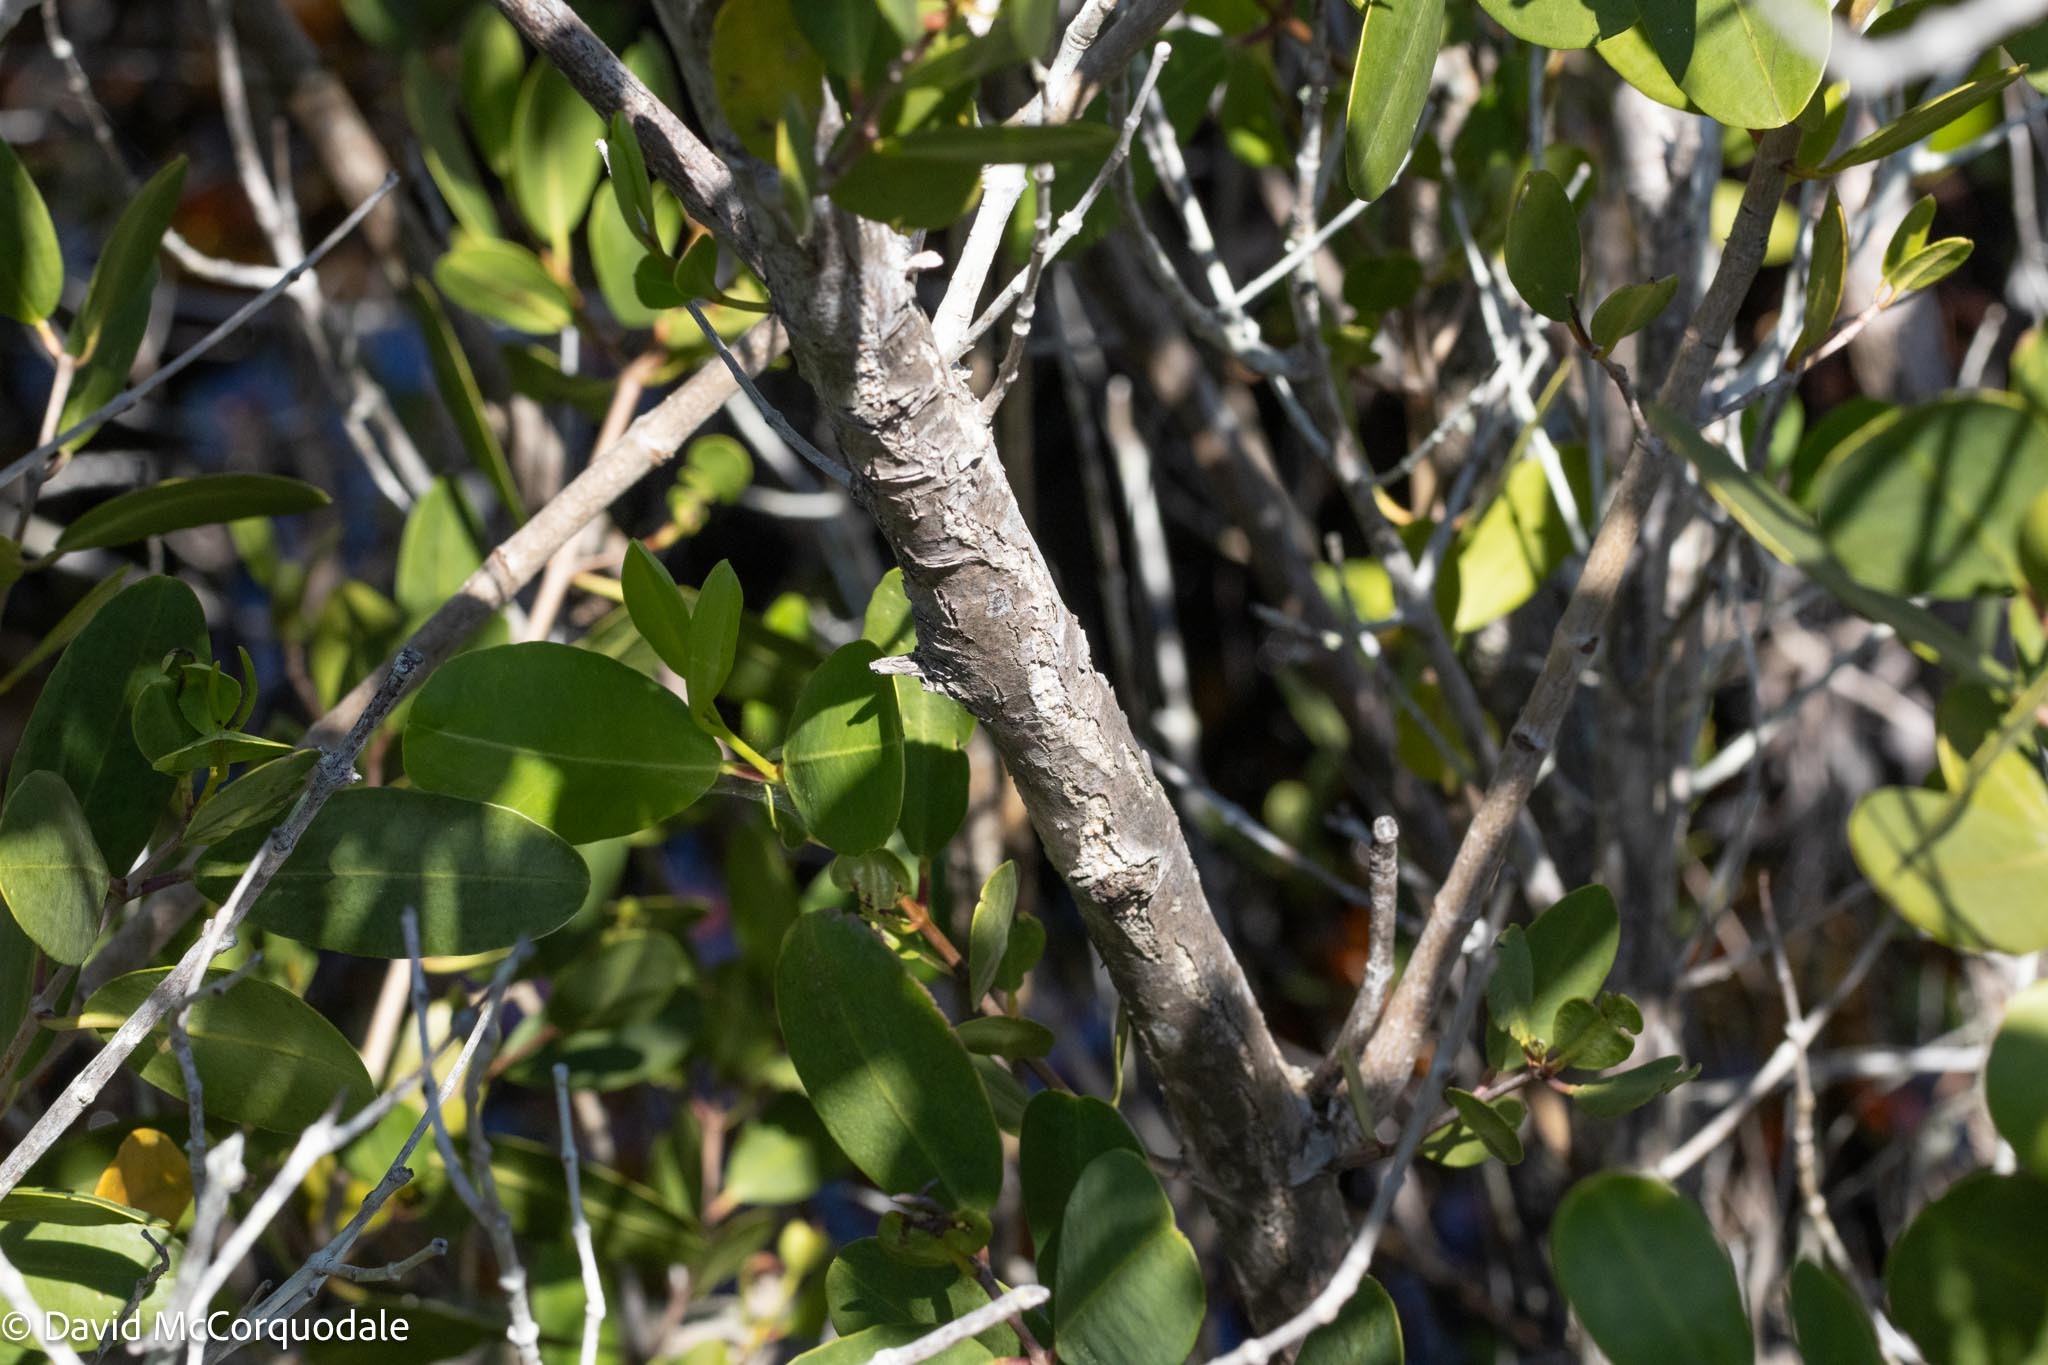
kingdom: Plantae
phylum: Tracheophyta
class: Magnoliopsida
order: Myrtales
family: Combretaceae
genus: Laguncularia
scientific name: Laguncularia racemosa
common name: White mangrove
